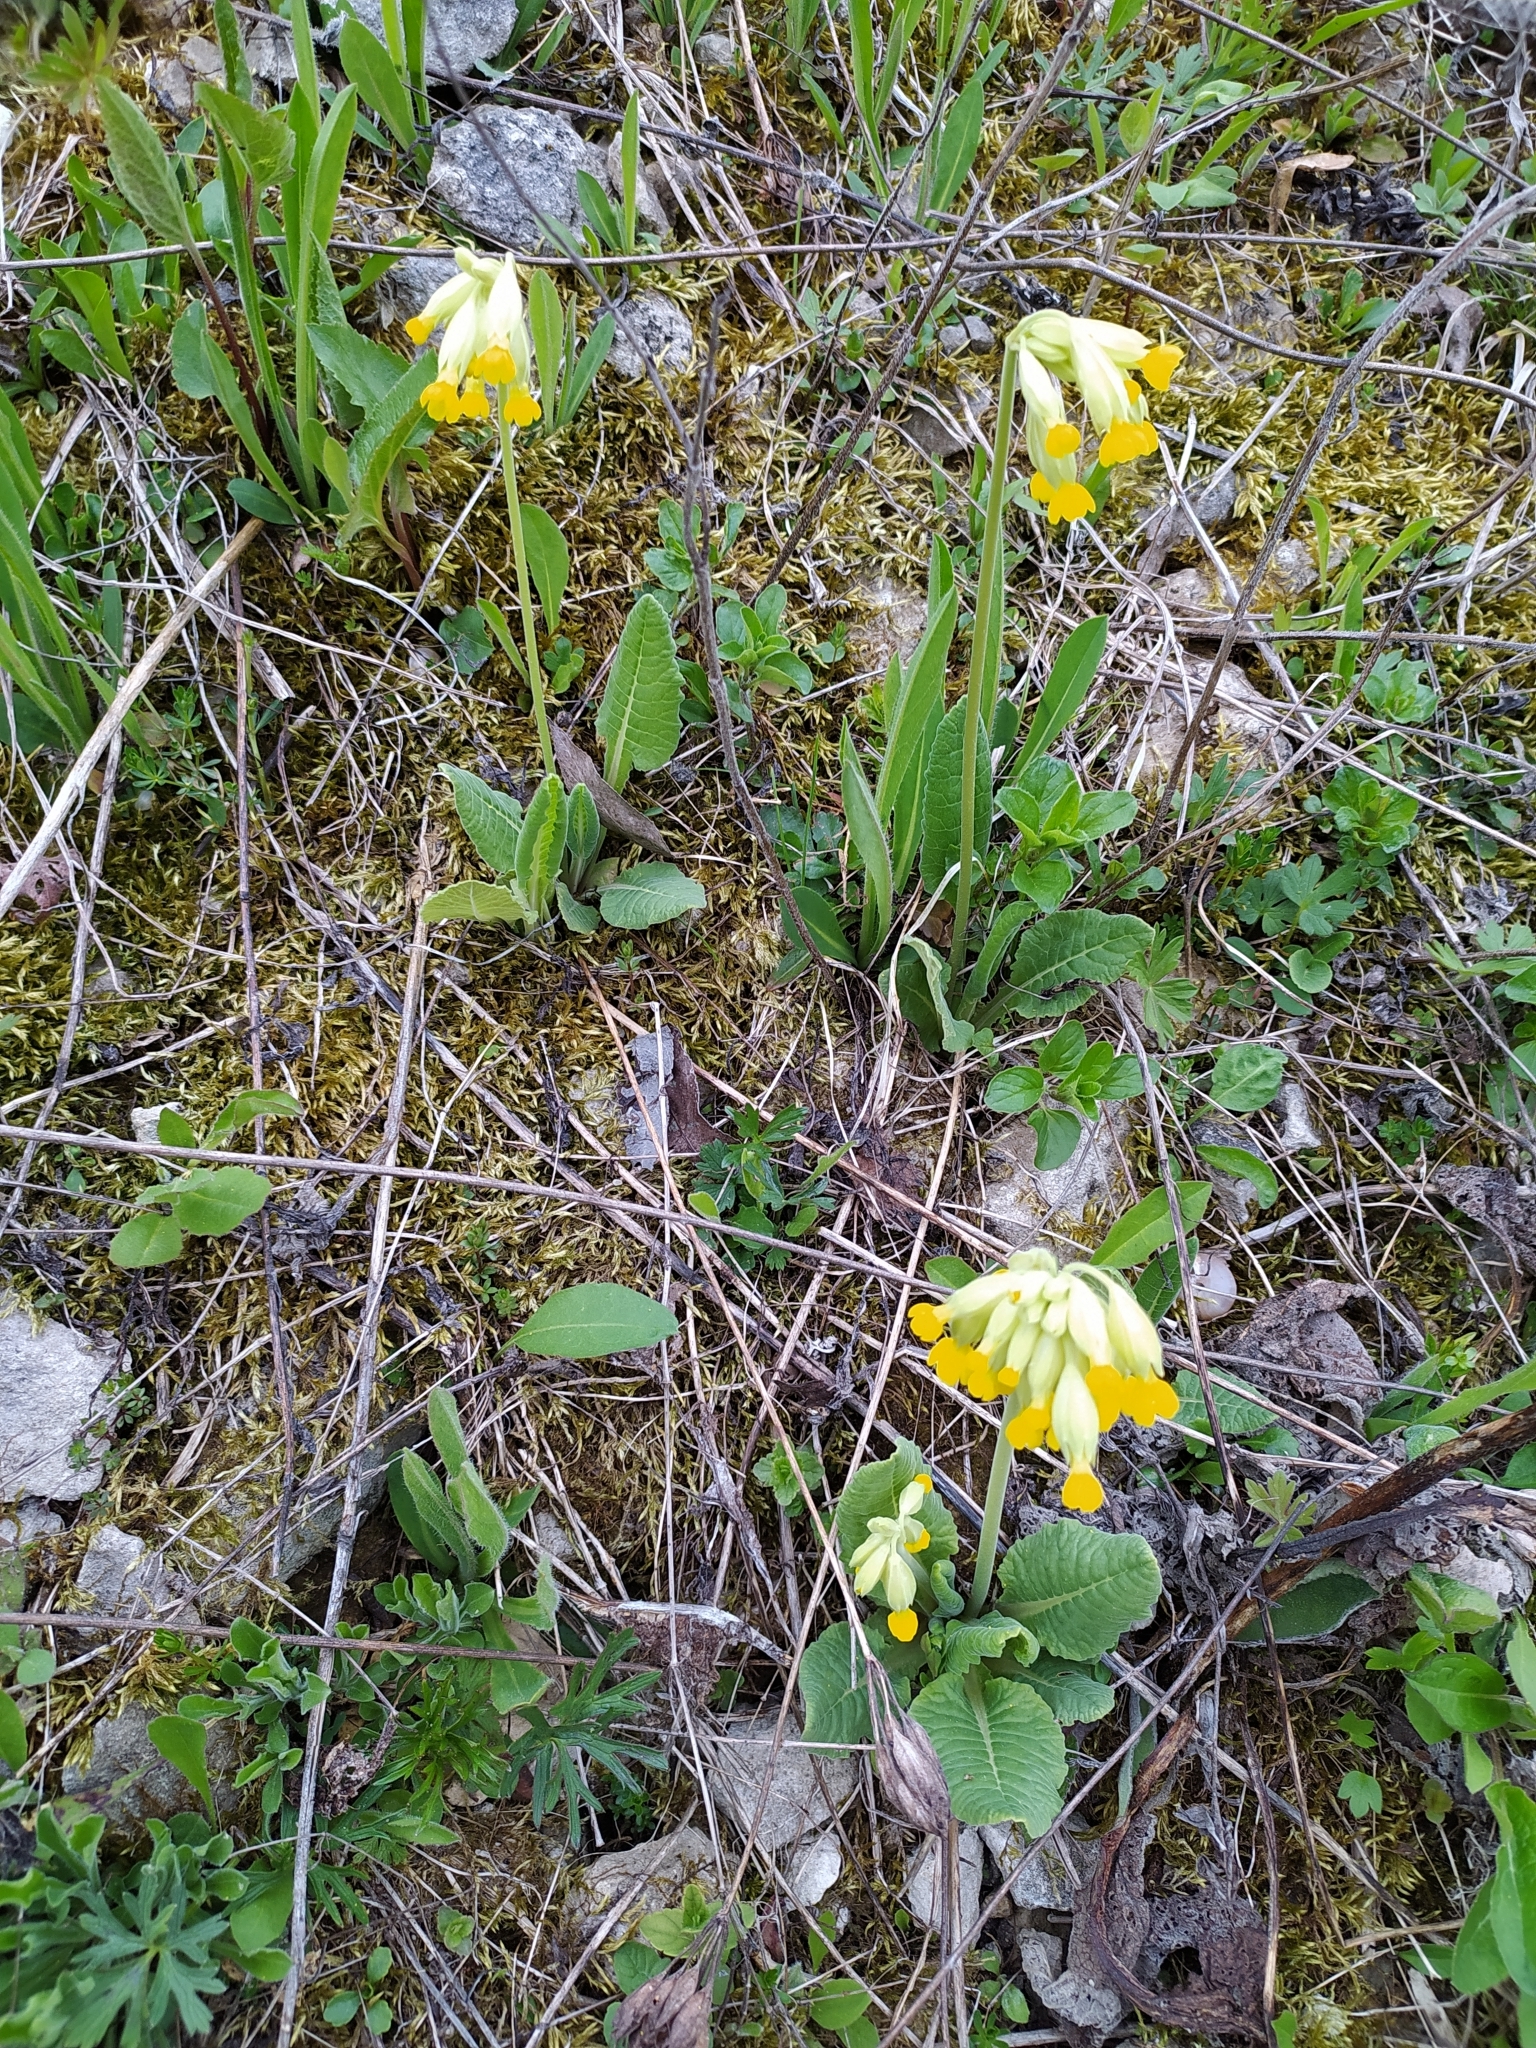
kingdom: Plantae
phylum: Tracheophyta
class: Magnoliopsida
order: Ericales
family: Primulaceae
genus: Primula
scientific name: Primula veris
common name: Cowslip
